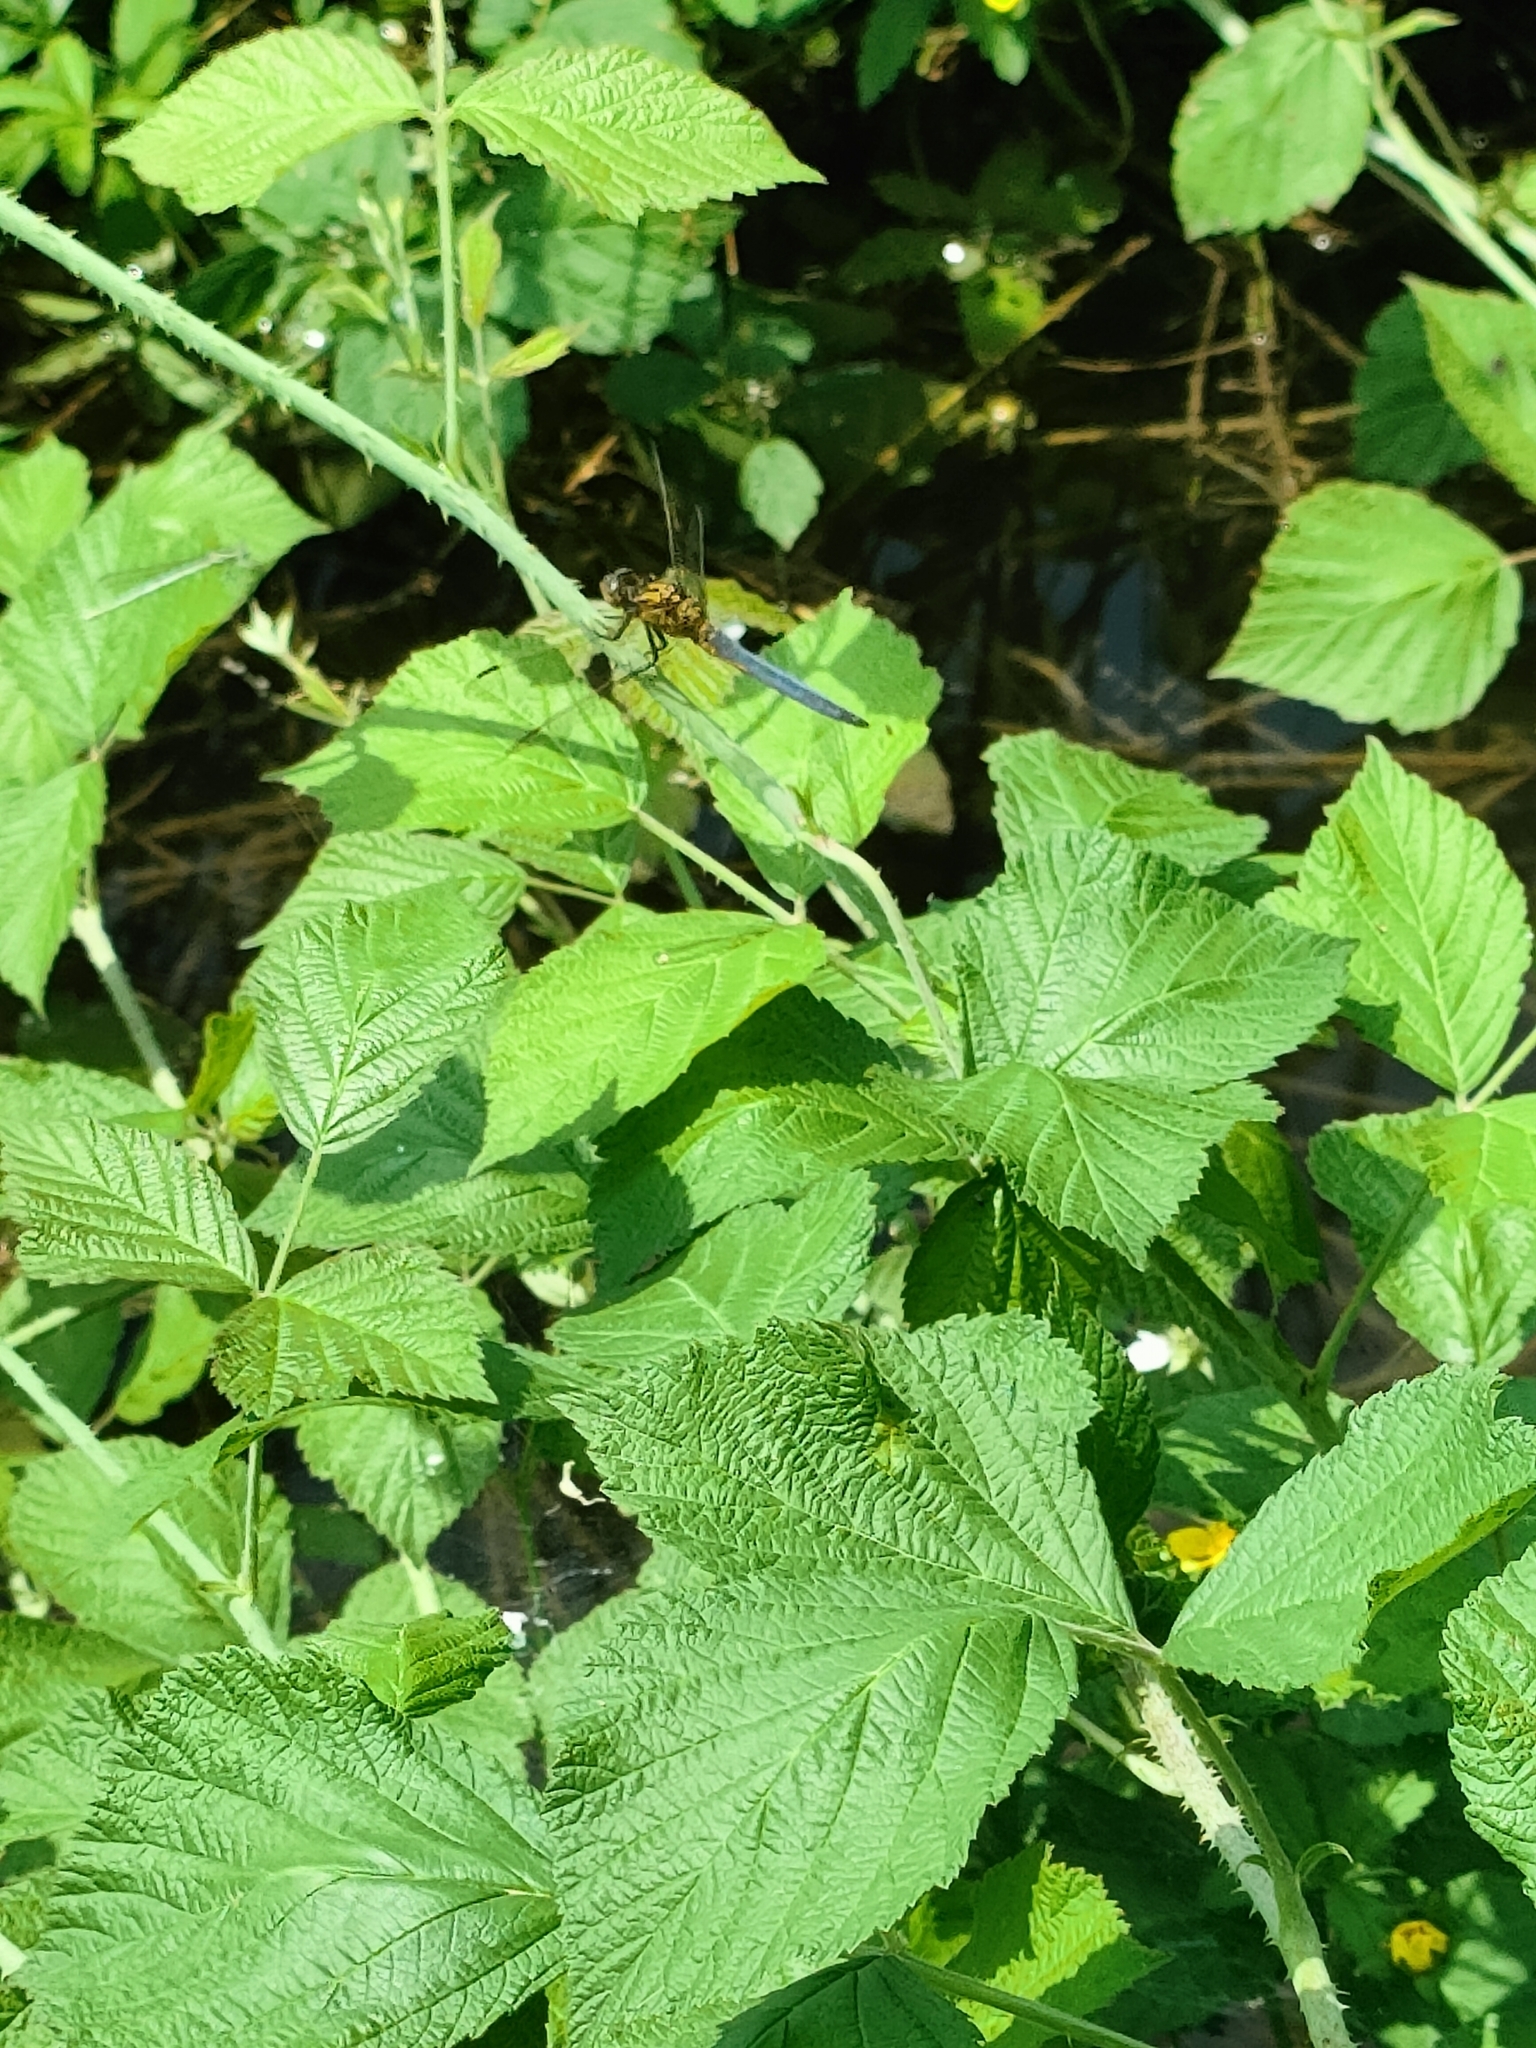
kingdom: Animalia
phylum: Arthropoda
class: Insecta
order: Odonata
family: Libellulidae
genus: Orthetrum
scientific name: Orthetrum coerulescens
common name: Keeled skimmer
